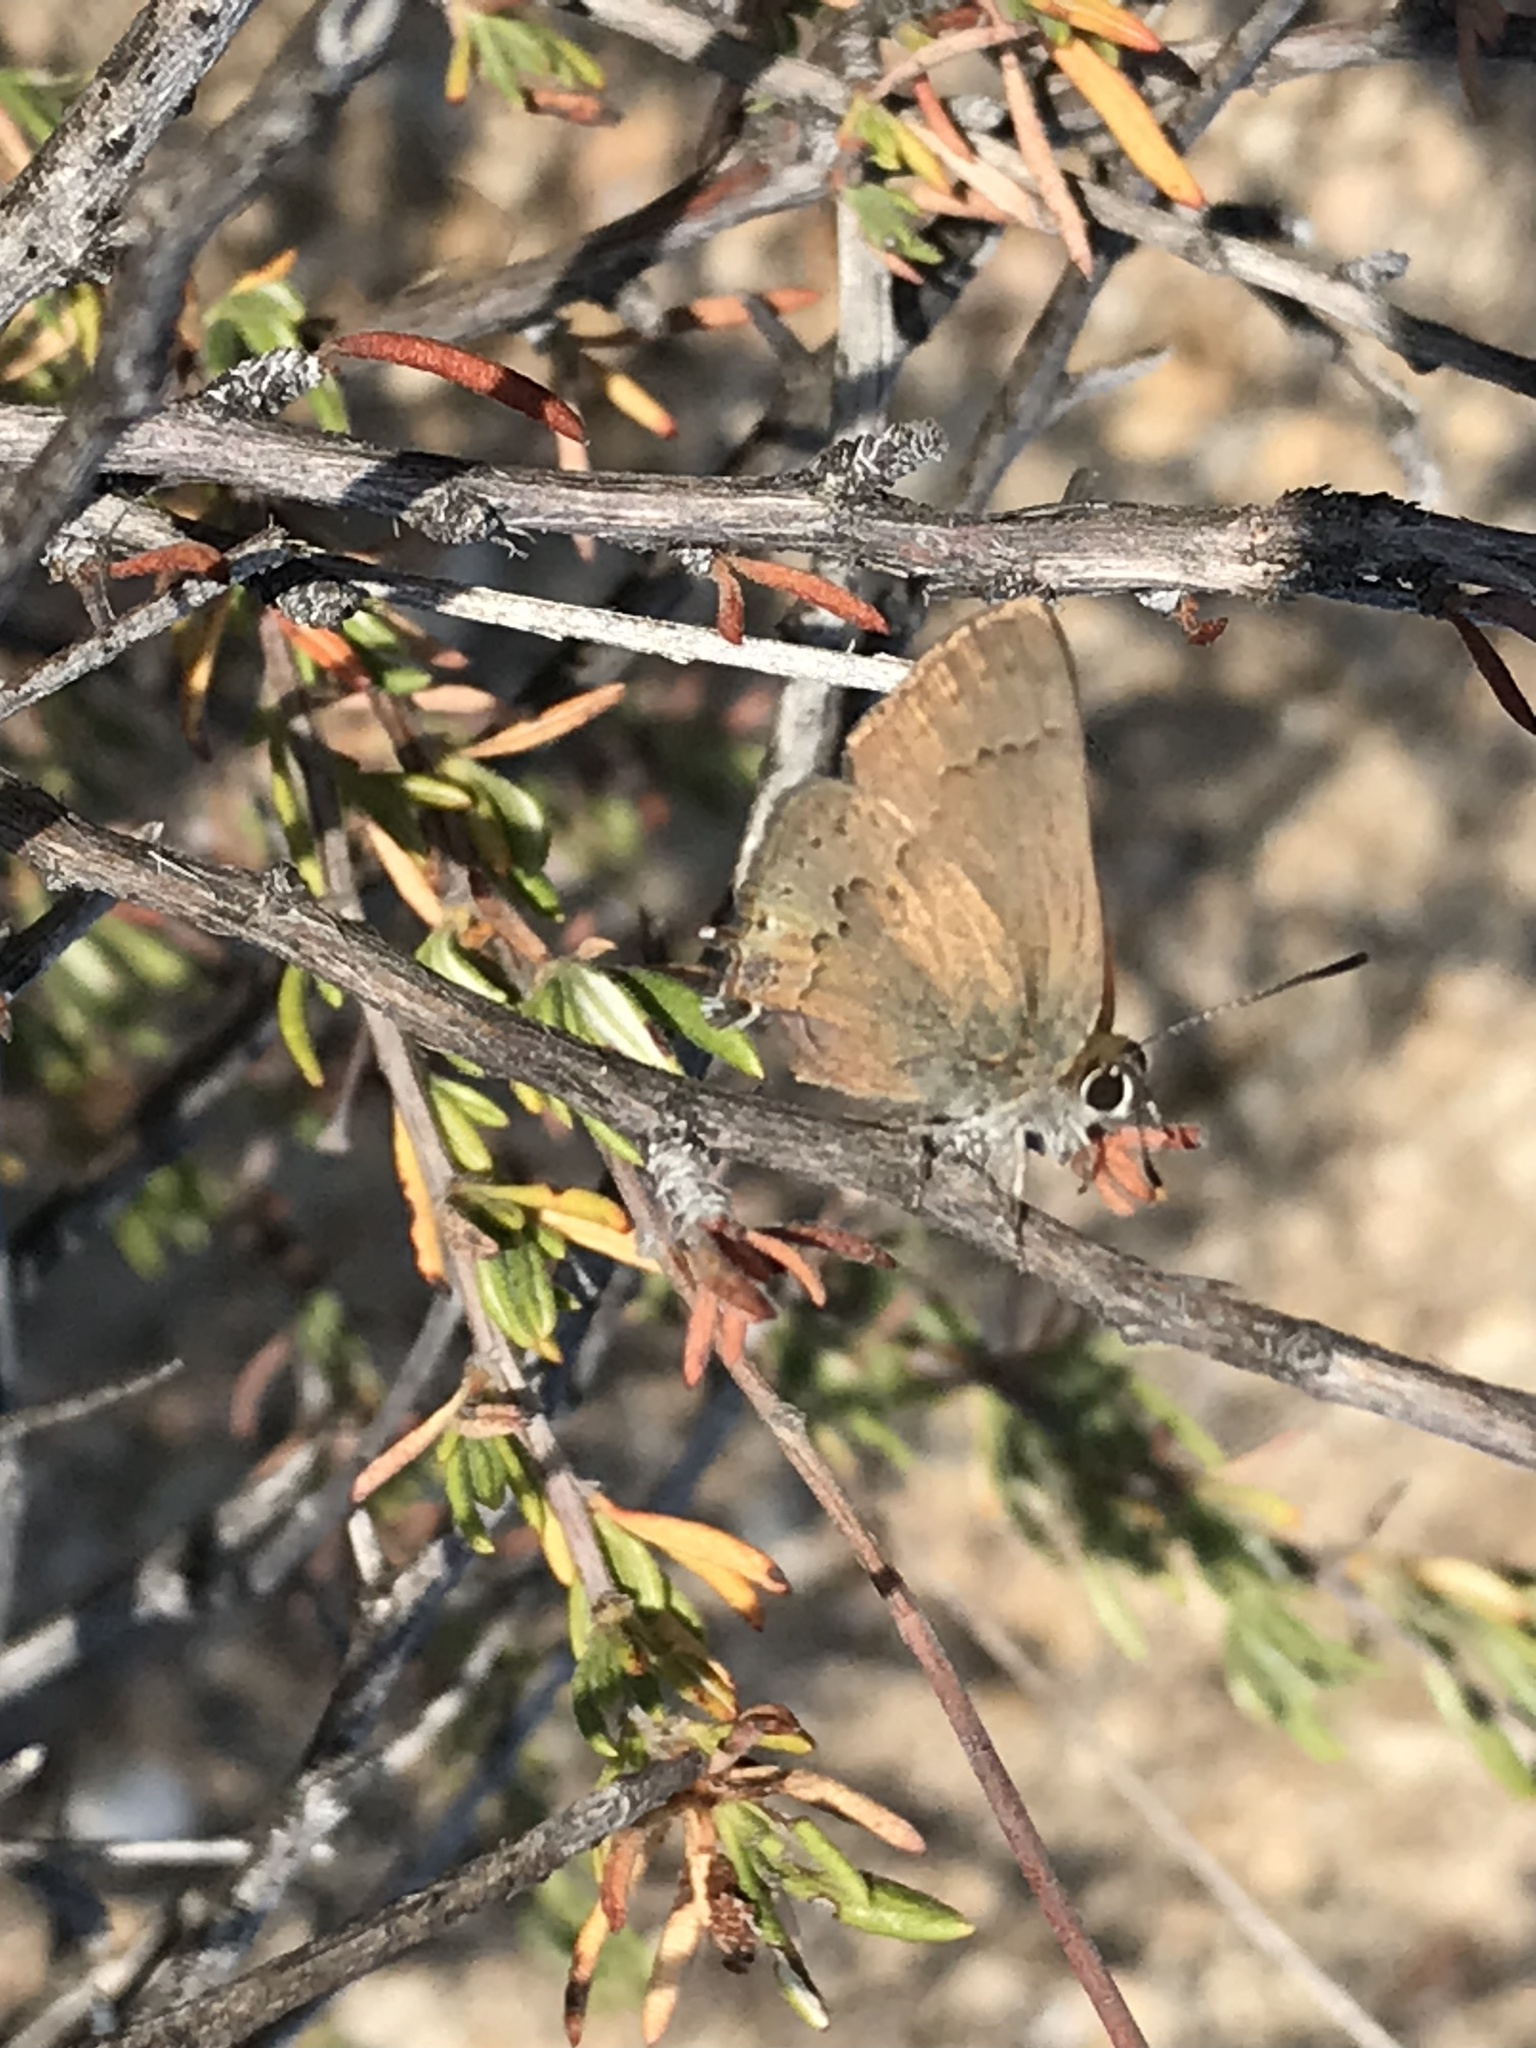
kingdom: Animalia
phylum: Arthropoda
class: Insecta
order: Lepidoptera
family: Lycaenidae
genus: Strymon
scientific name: Strymon saepium
